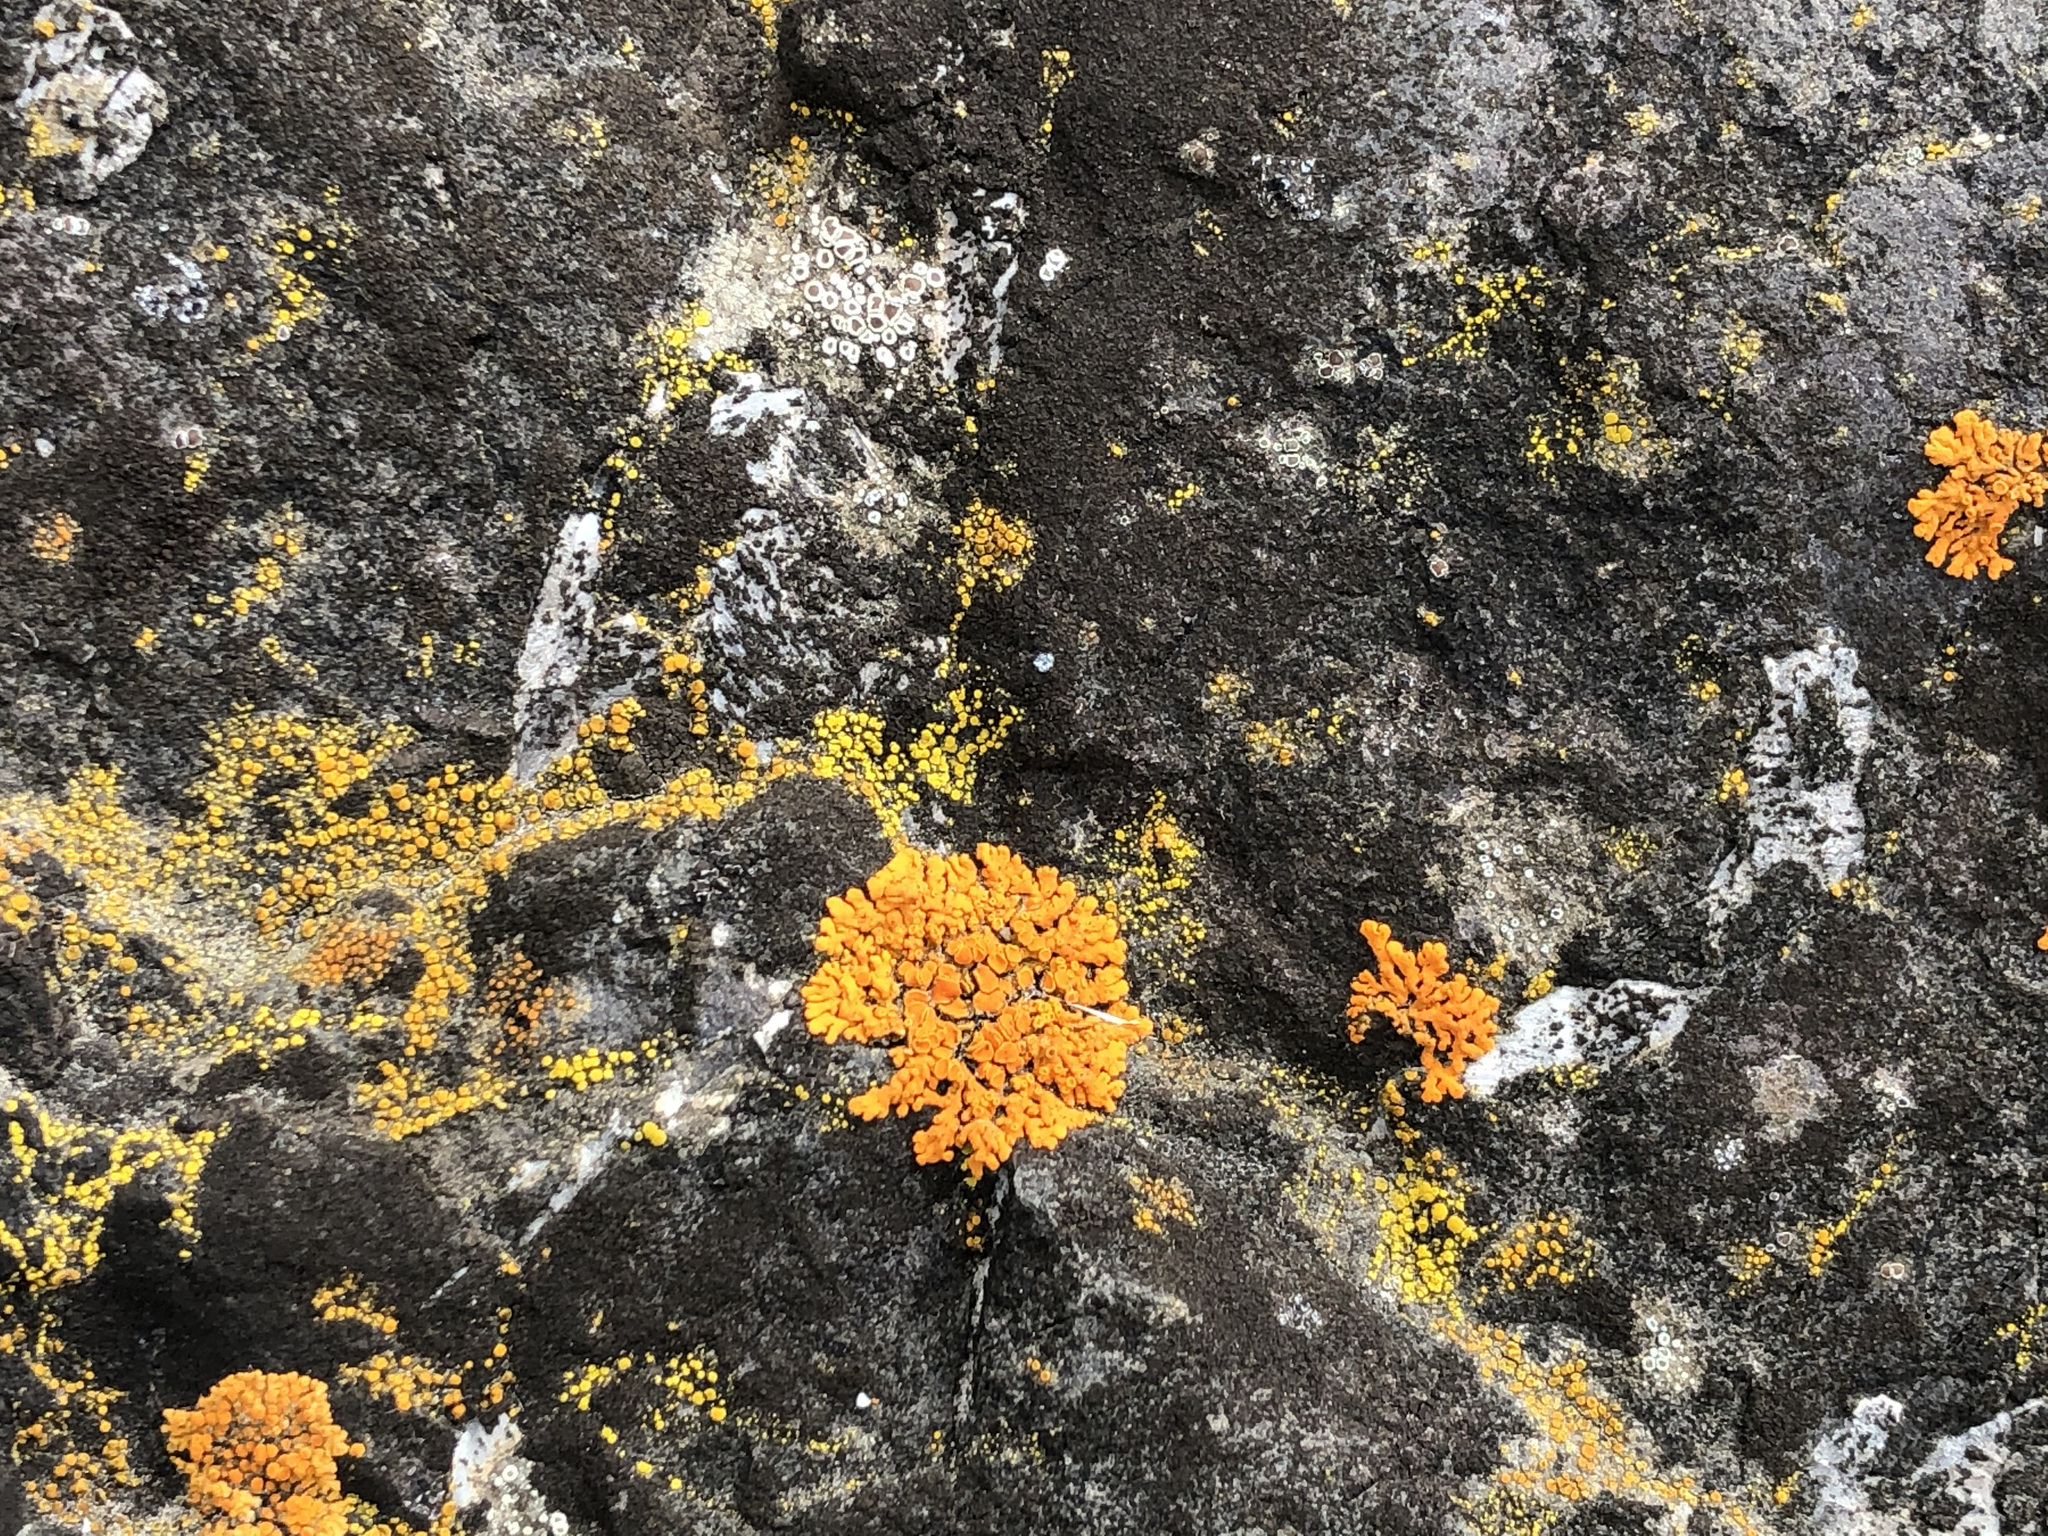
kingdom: Fungi
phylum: Ascomycota
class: Lecanoromycetes
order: Teloschistales
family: Teloschistaceae
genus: Xanthoria
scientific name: Xanthoria elegans
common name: Elegant sunburst lichen
